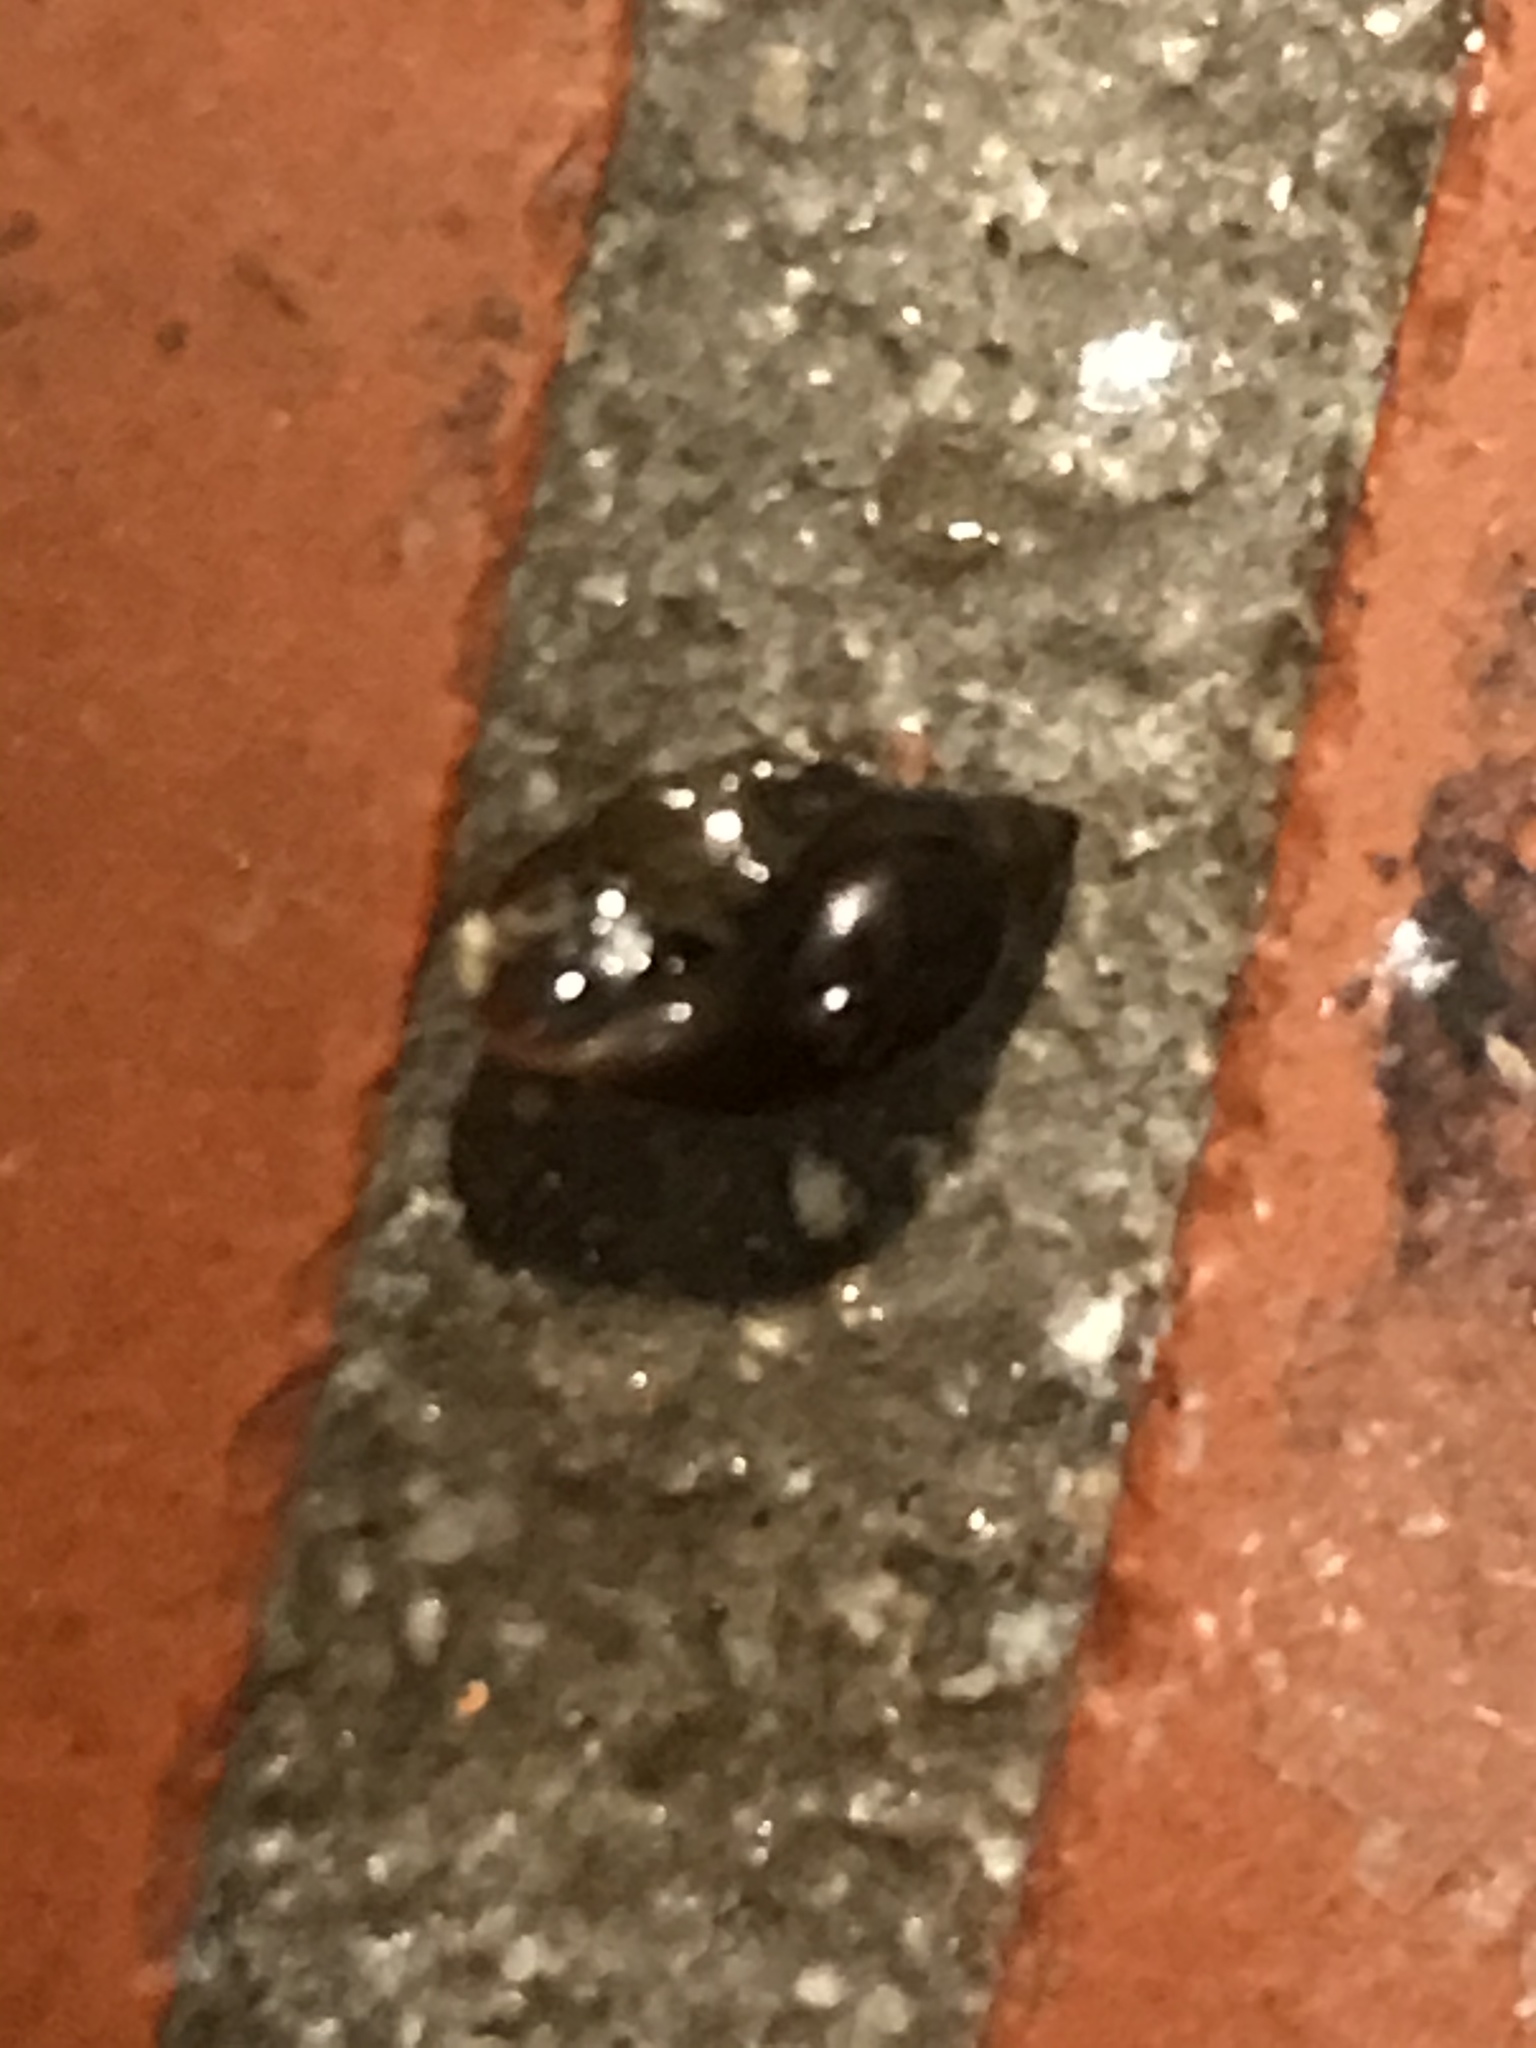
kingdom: Animalia
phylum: Mollusca
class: Gastropoda
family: Physidae
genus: Physella
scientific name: Physella
